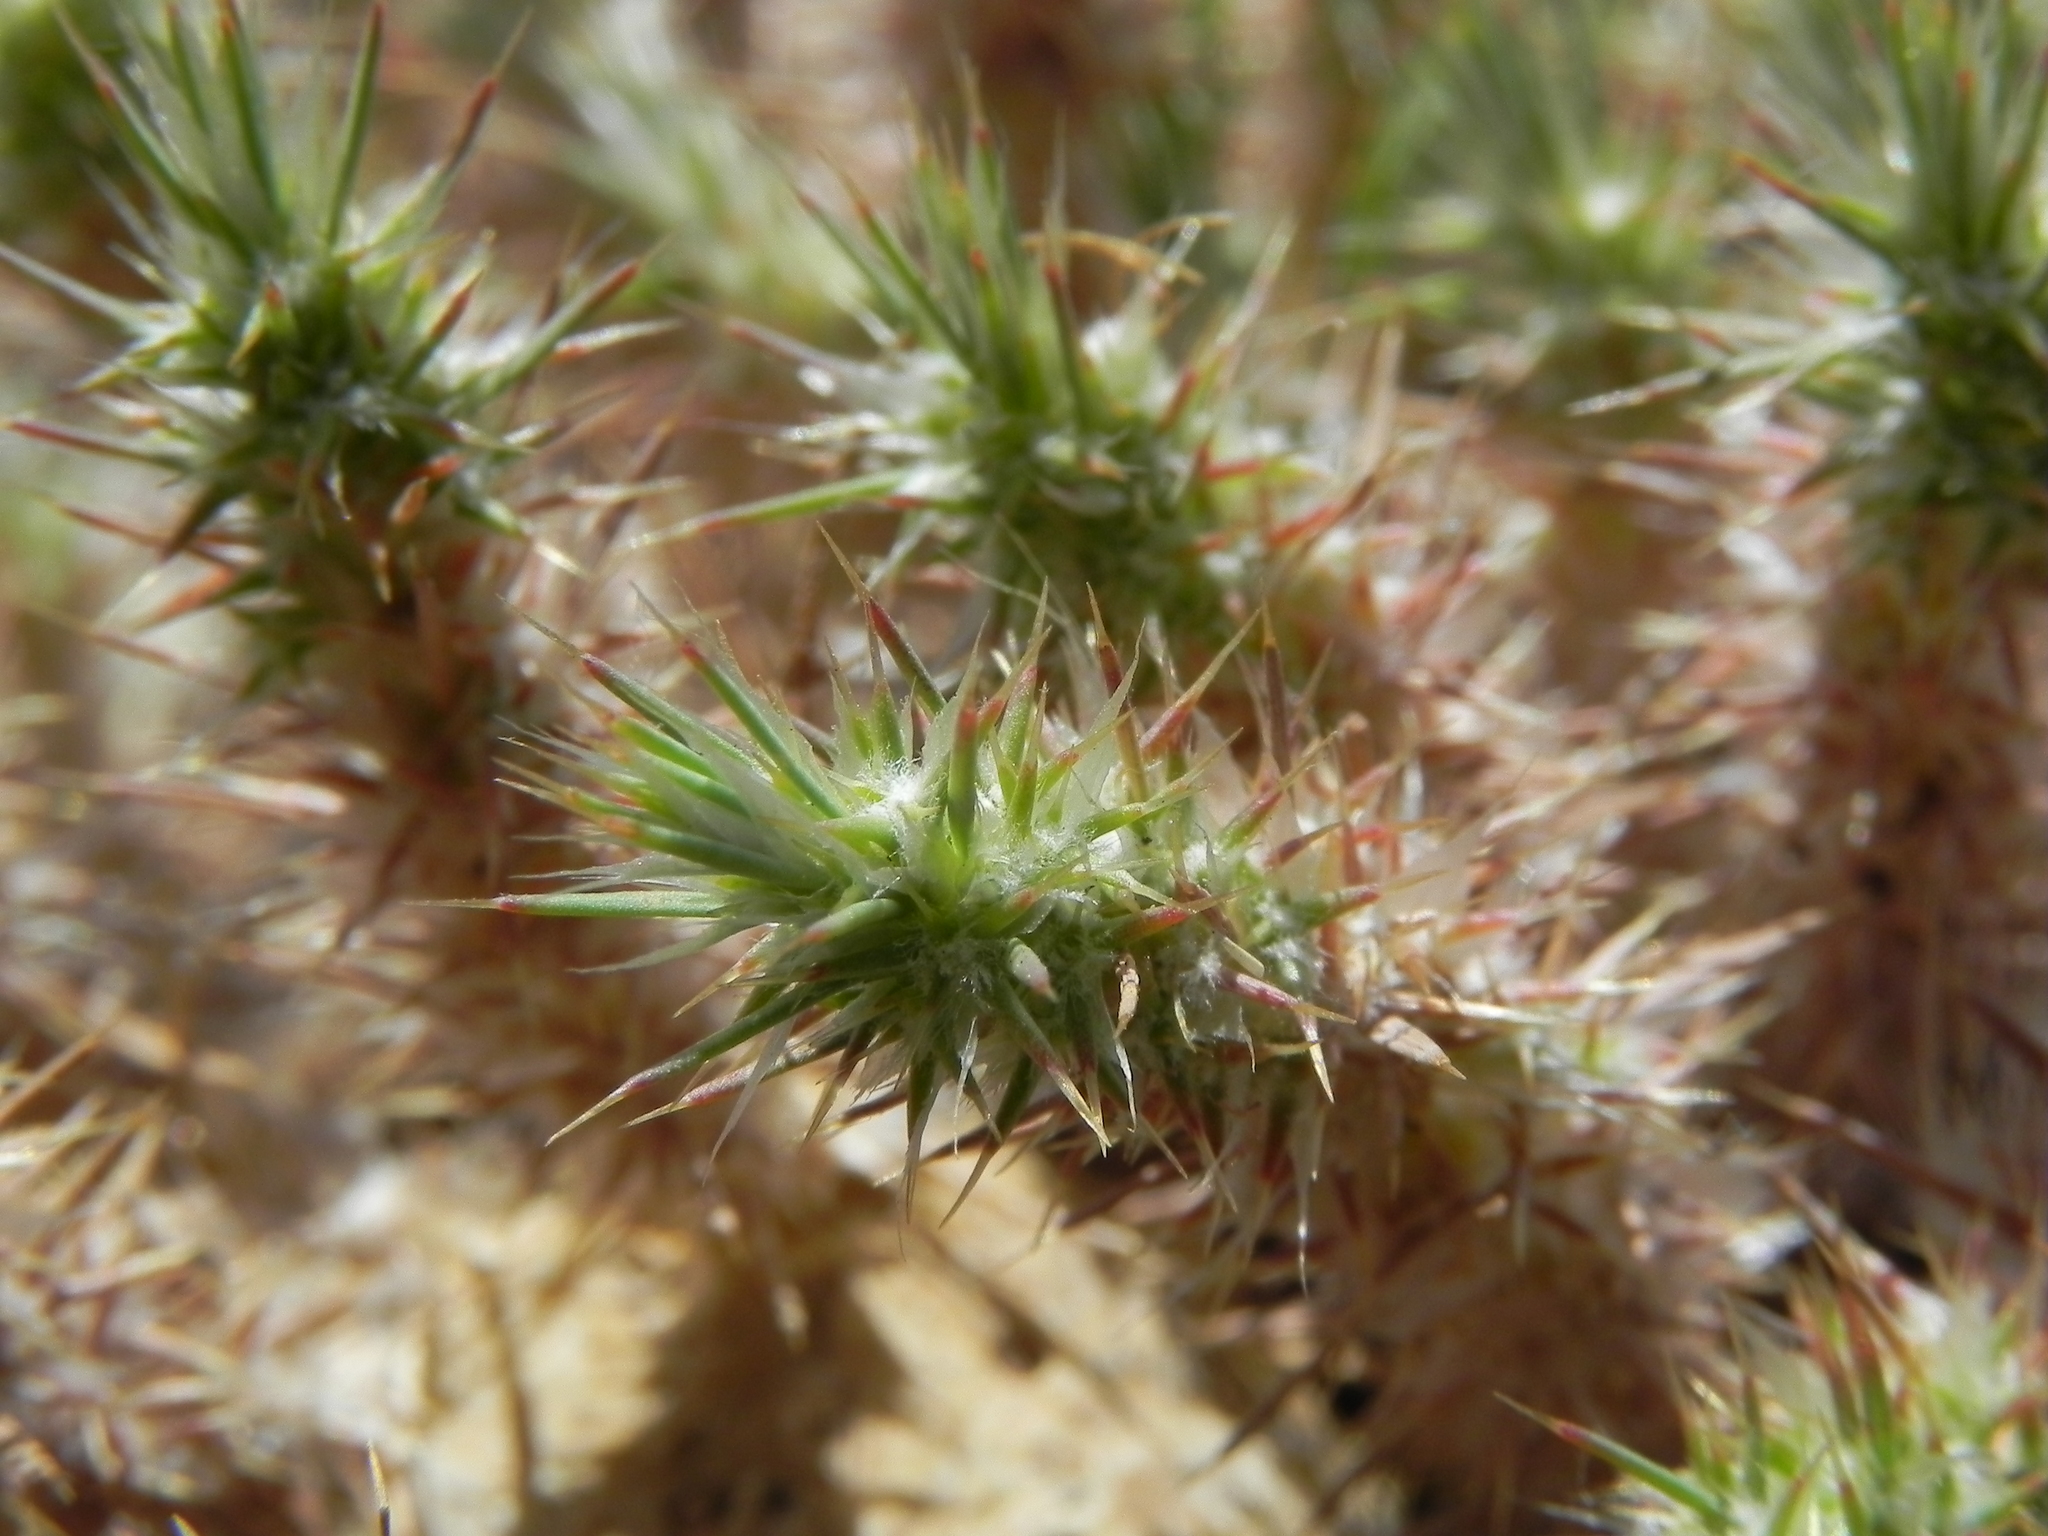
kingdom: Plantae
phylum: Tracheophyta
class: Magnoliopsida
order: Caryophyllales
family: Caryophyllaceae
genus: Cardionema
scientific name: Cardionema ramosissima
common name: Sandcarpet
